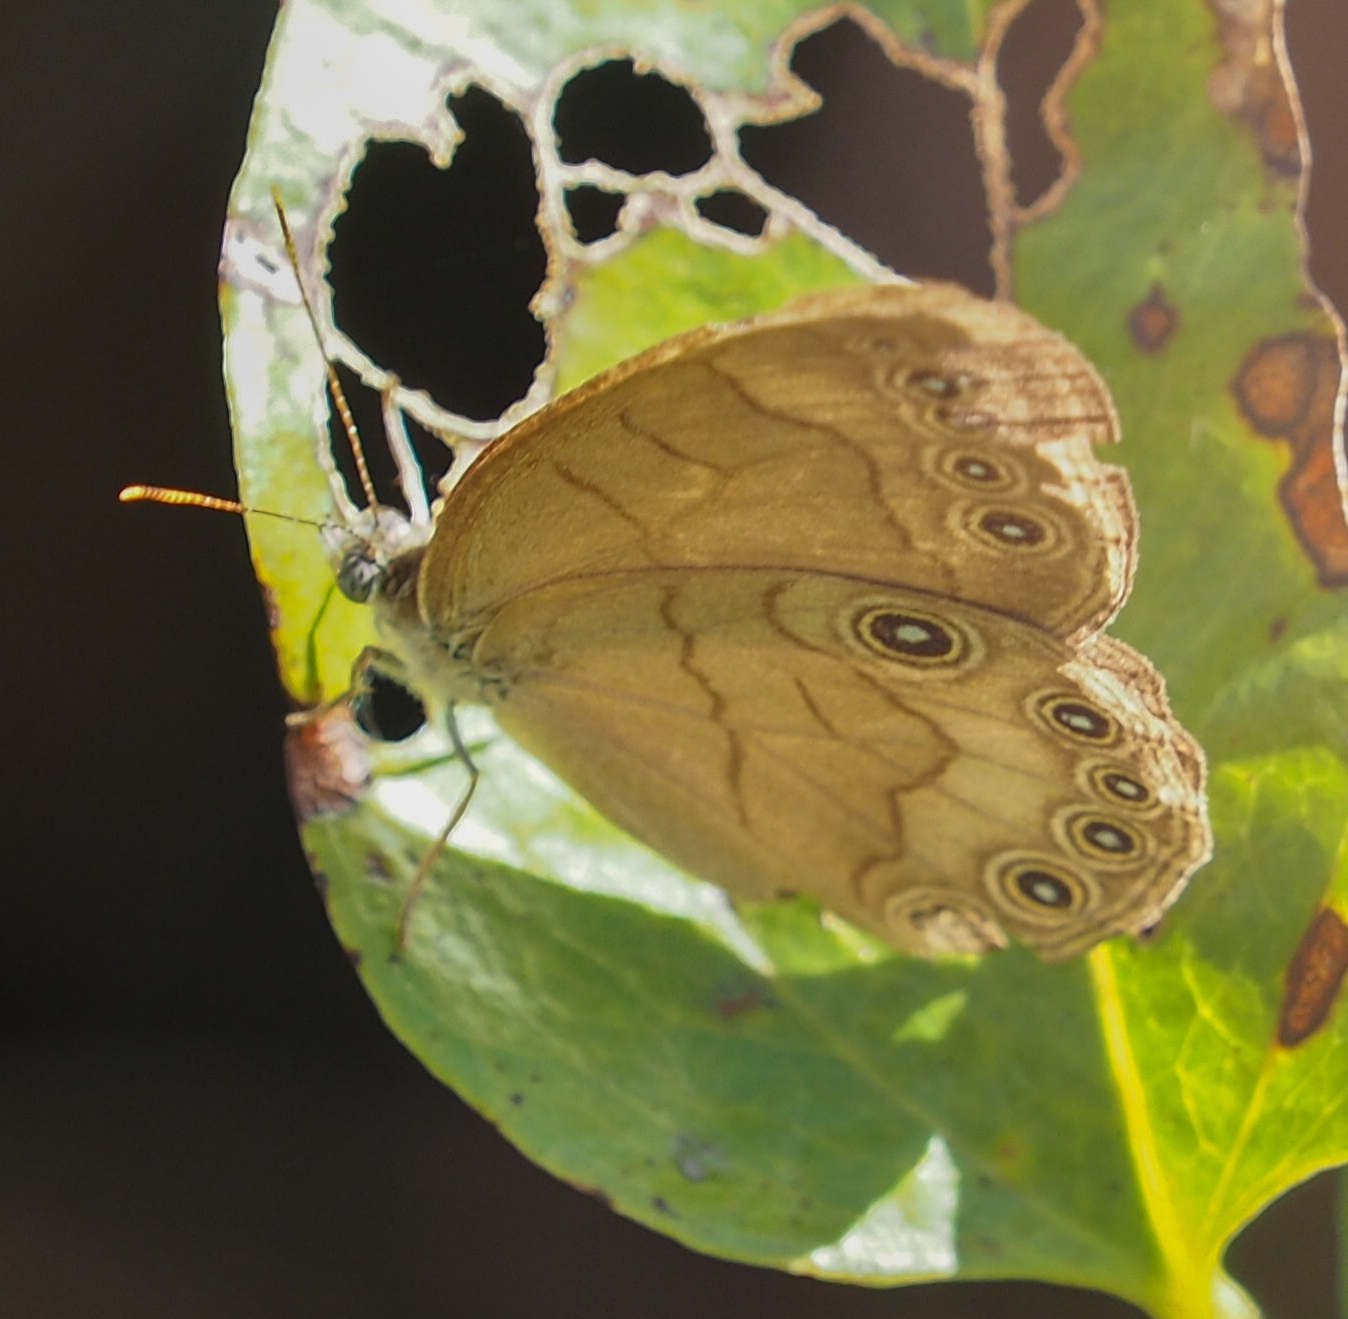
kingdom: Animalia
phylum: Arthropoda
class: Insecta
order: Lepidoptera
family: Nymphalidae
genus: Lethe
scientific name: Lethe eurydice
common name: Eyed brown
